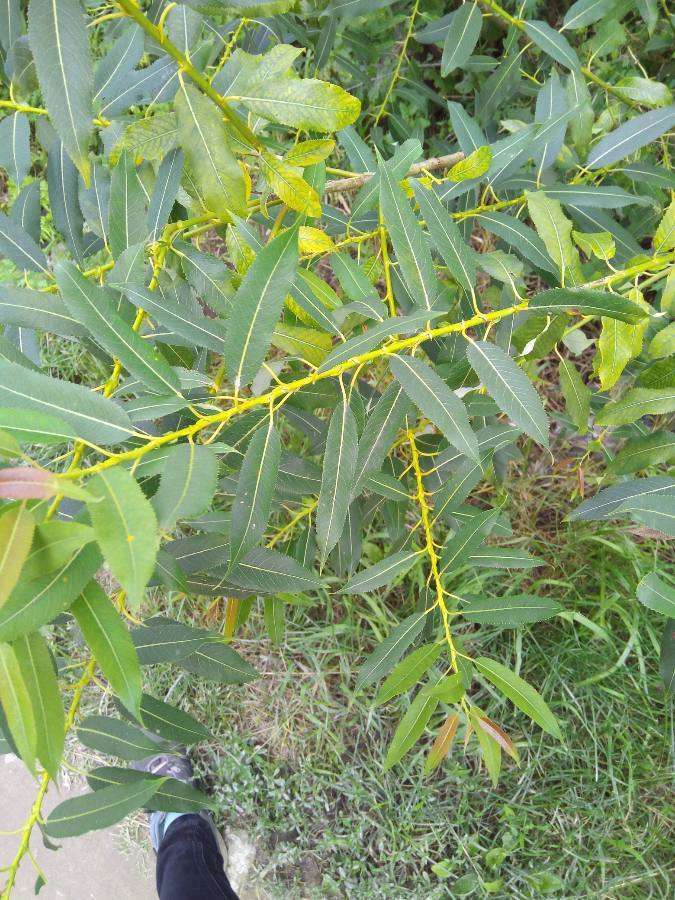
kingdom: Plantae
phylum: Tracheophyta
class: Magnoliopsida
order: Malpighiales
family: Salicaceae
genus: Salix
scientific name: Salix triandra
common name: Almond willow
